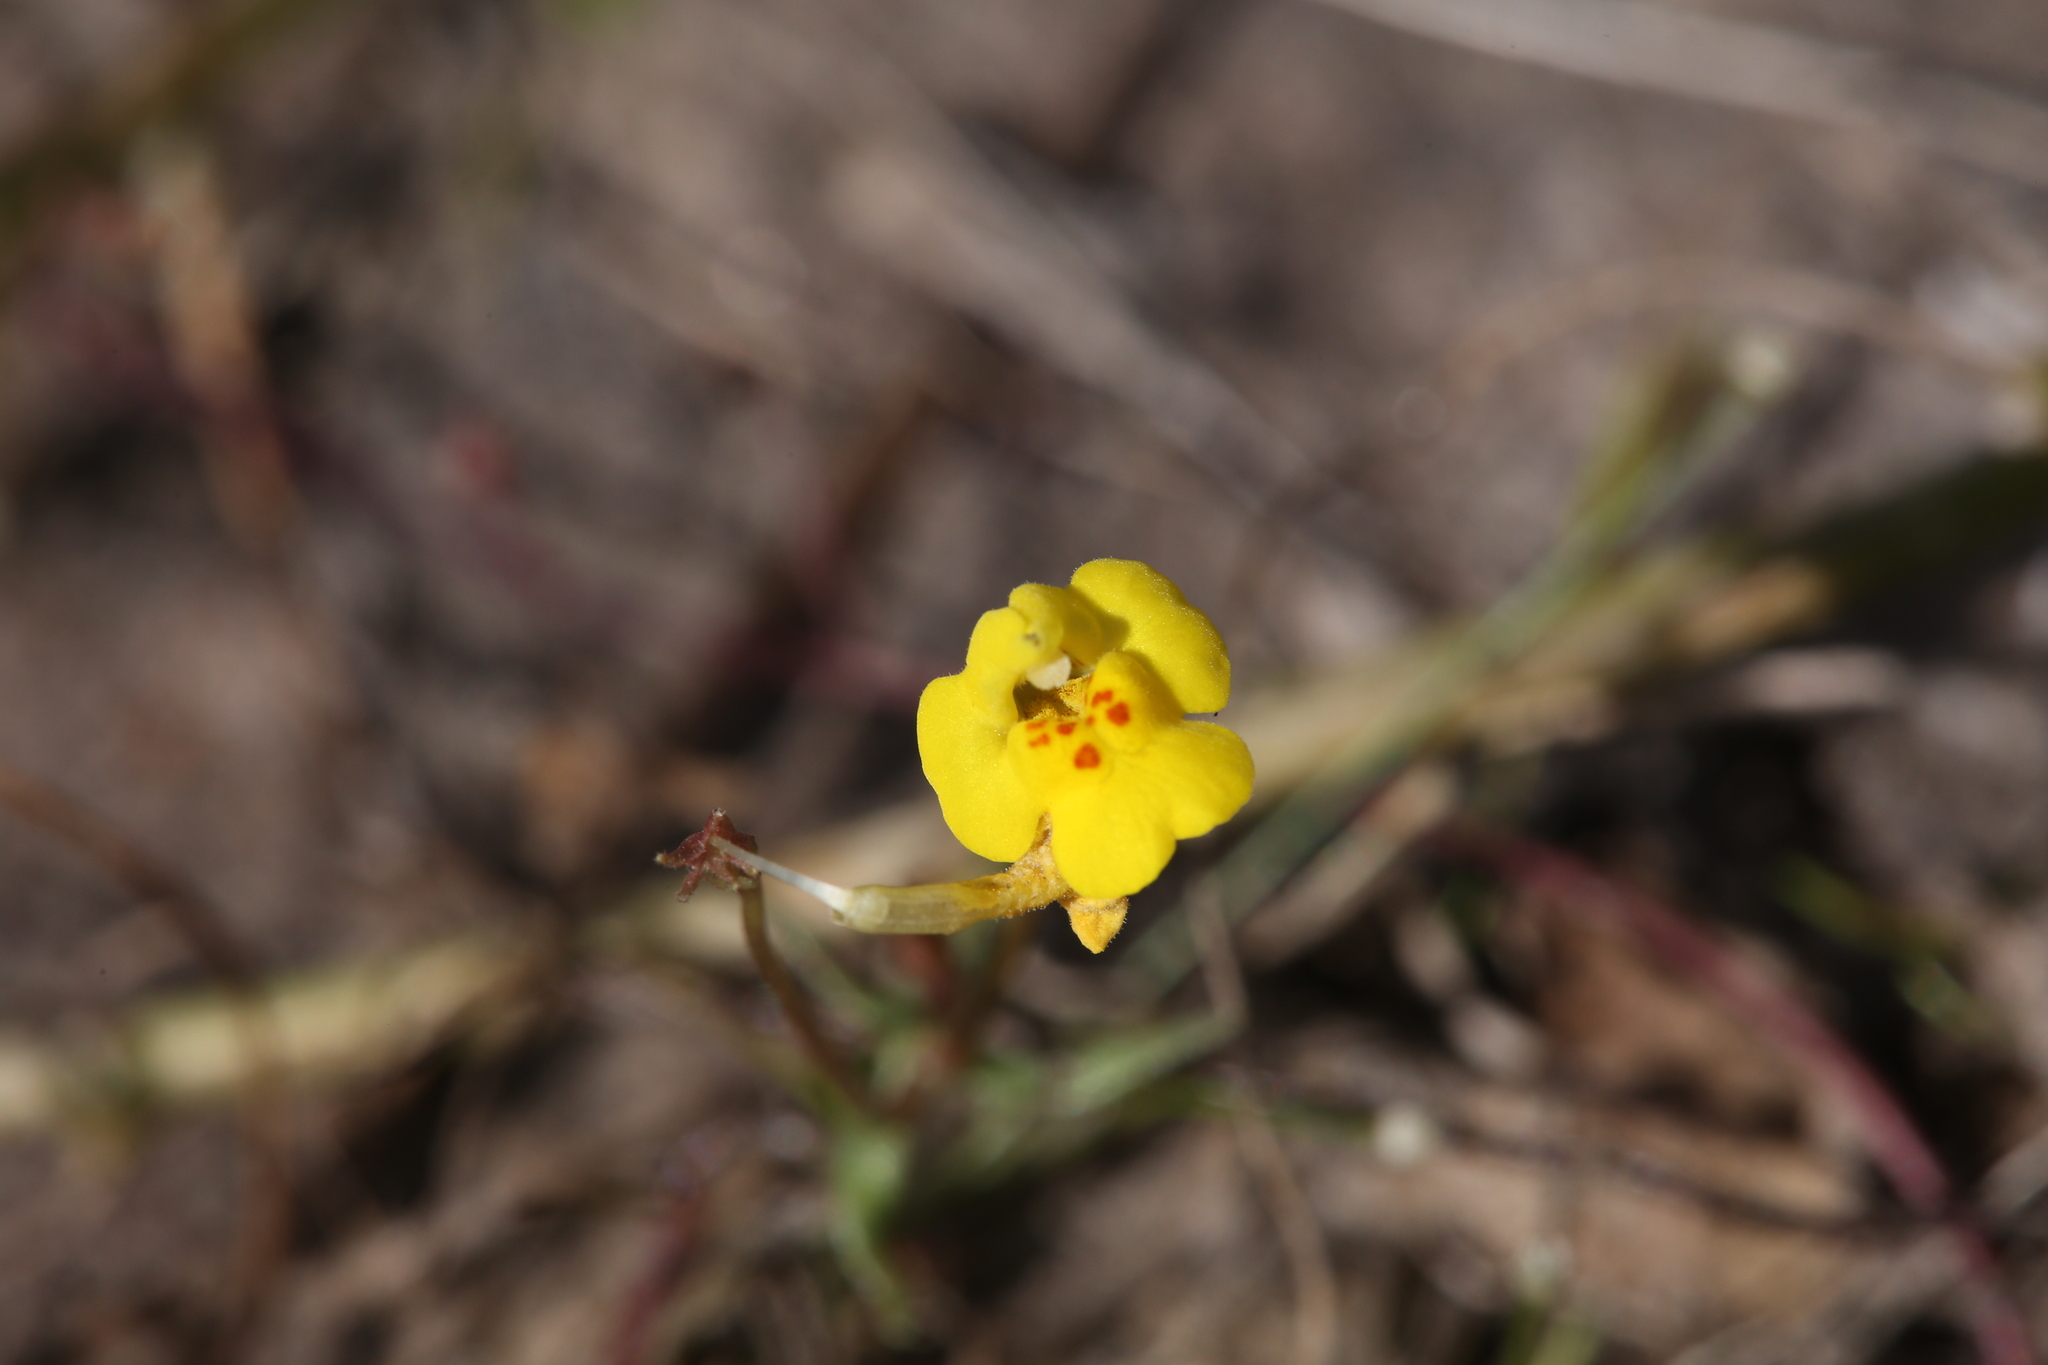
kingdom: Plantae
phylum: Tracheophyta
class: Magnoliopsida
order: Lamiales
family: Phrymaceae
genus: Uvedalia
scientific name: Uvedalia linearis
